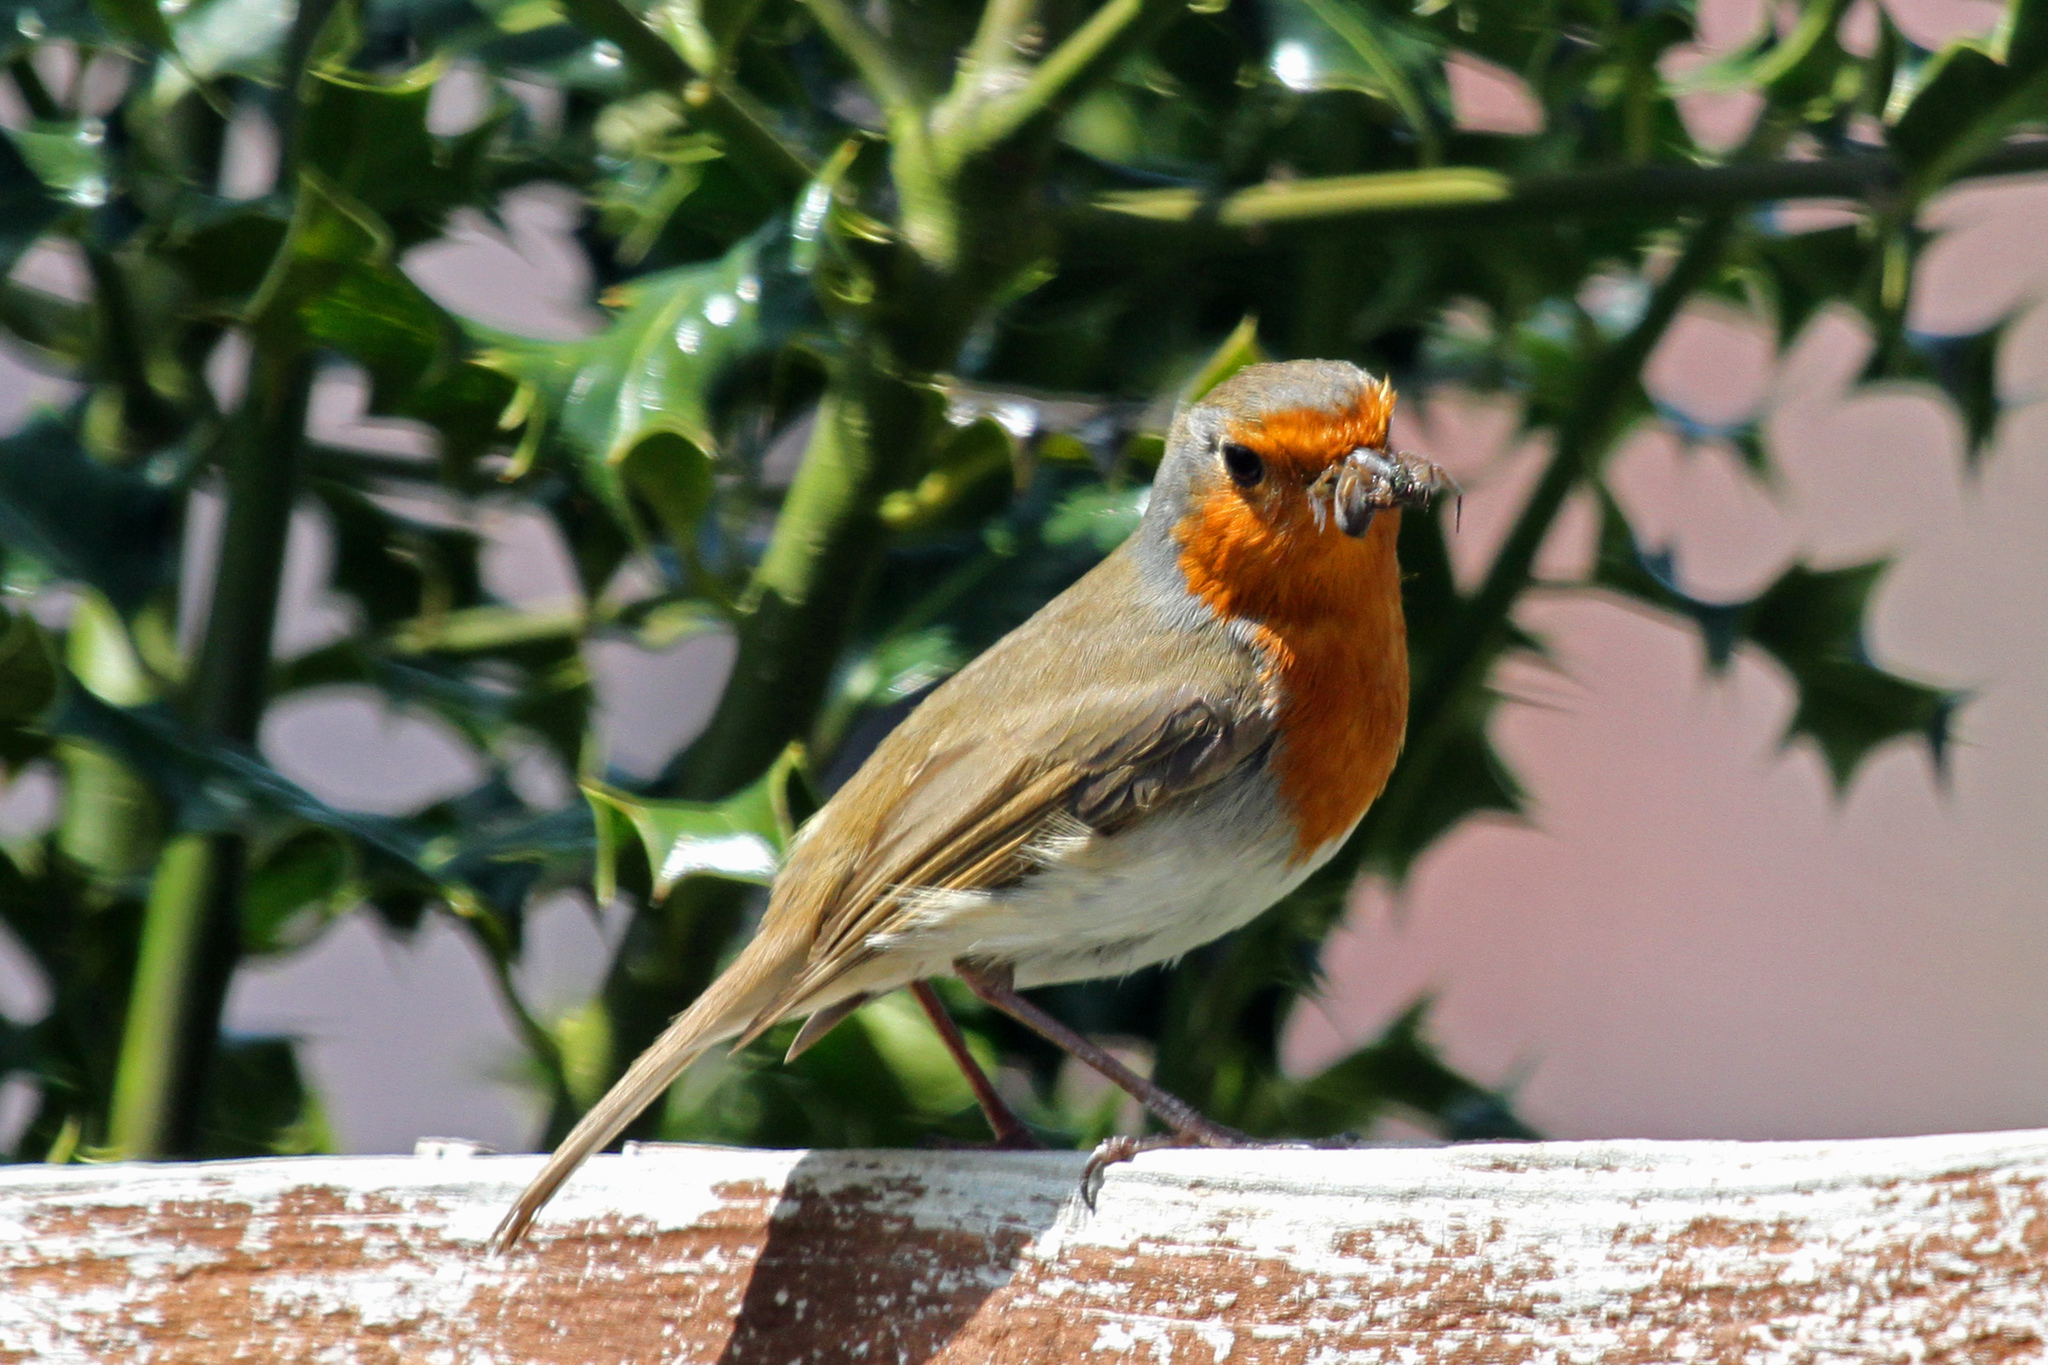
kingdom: Animalia
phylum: Chordata
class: Aves
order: Passeriformes
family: Muscicapidae
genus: Erithacus
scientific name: Erithacus rubecula
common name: European robin
